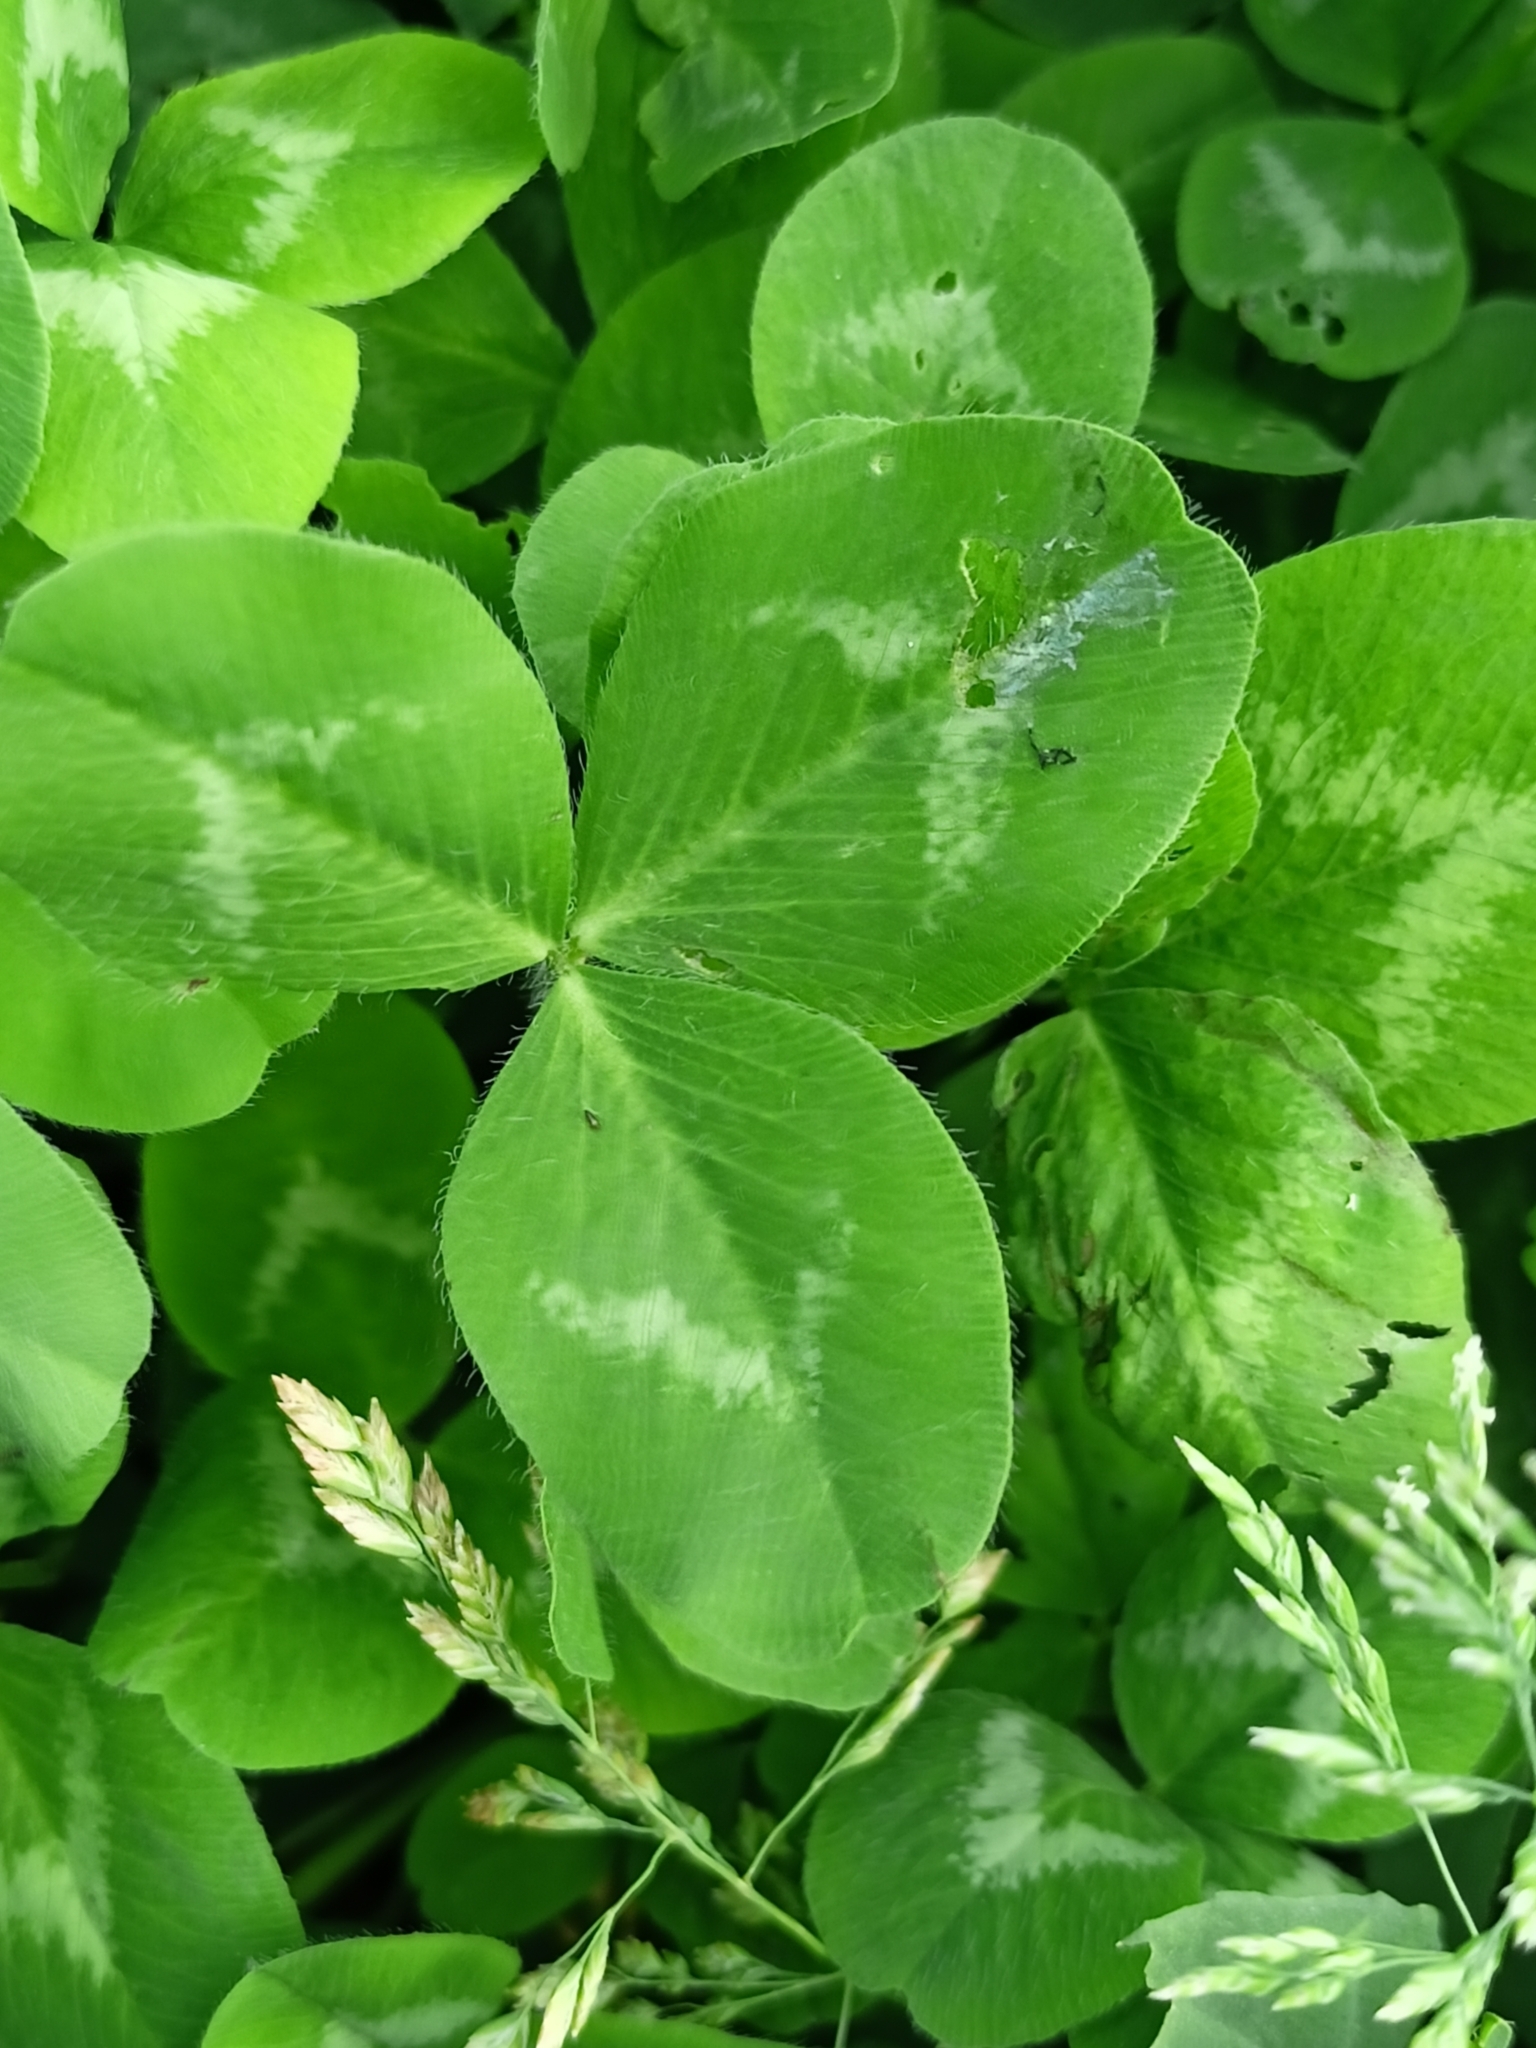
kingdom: Plantae
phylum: Tracheophyta
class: Magnoliopsida
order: Fabales
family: Fabaceae
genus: Trifolium
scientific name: Trifolium repens
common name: White clover
